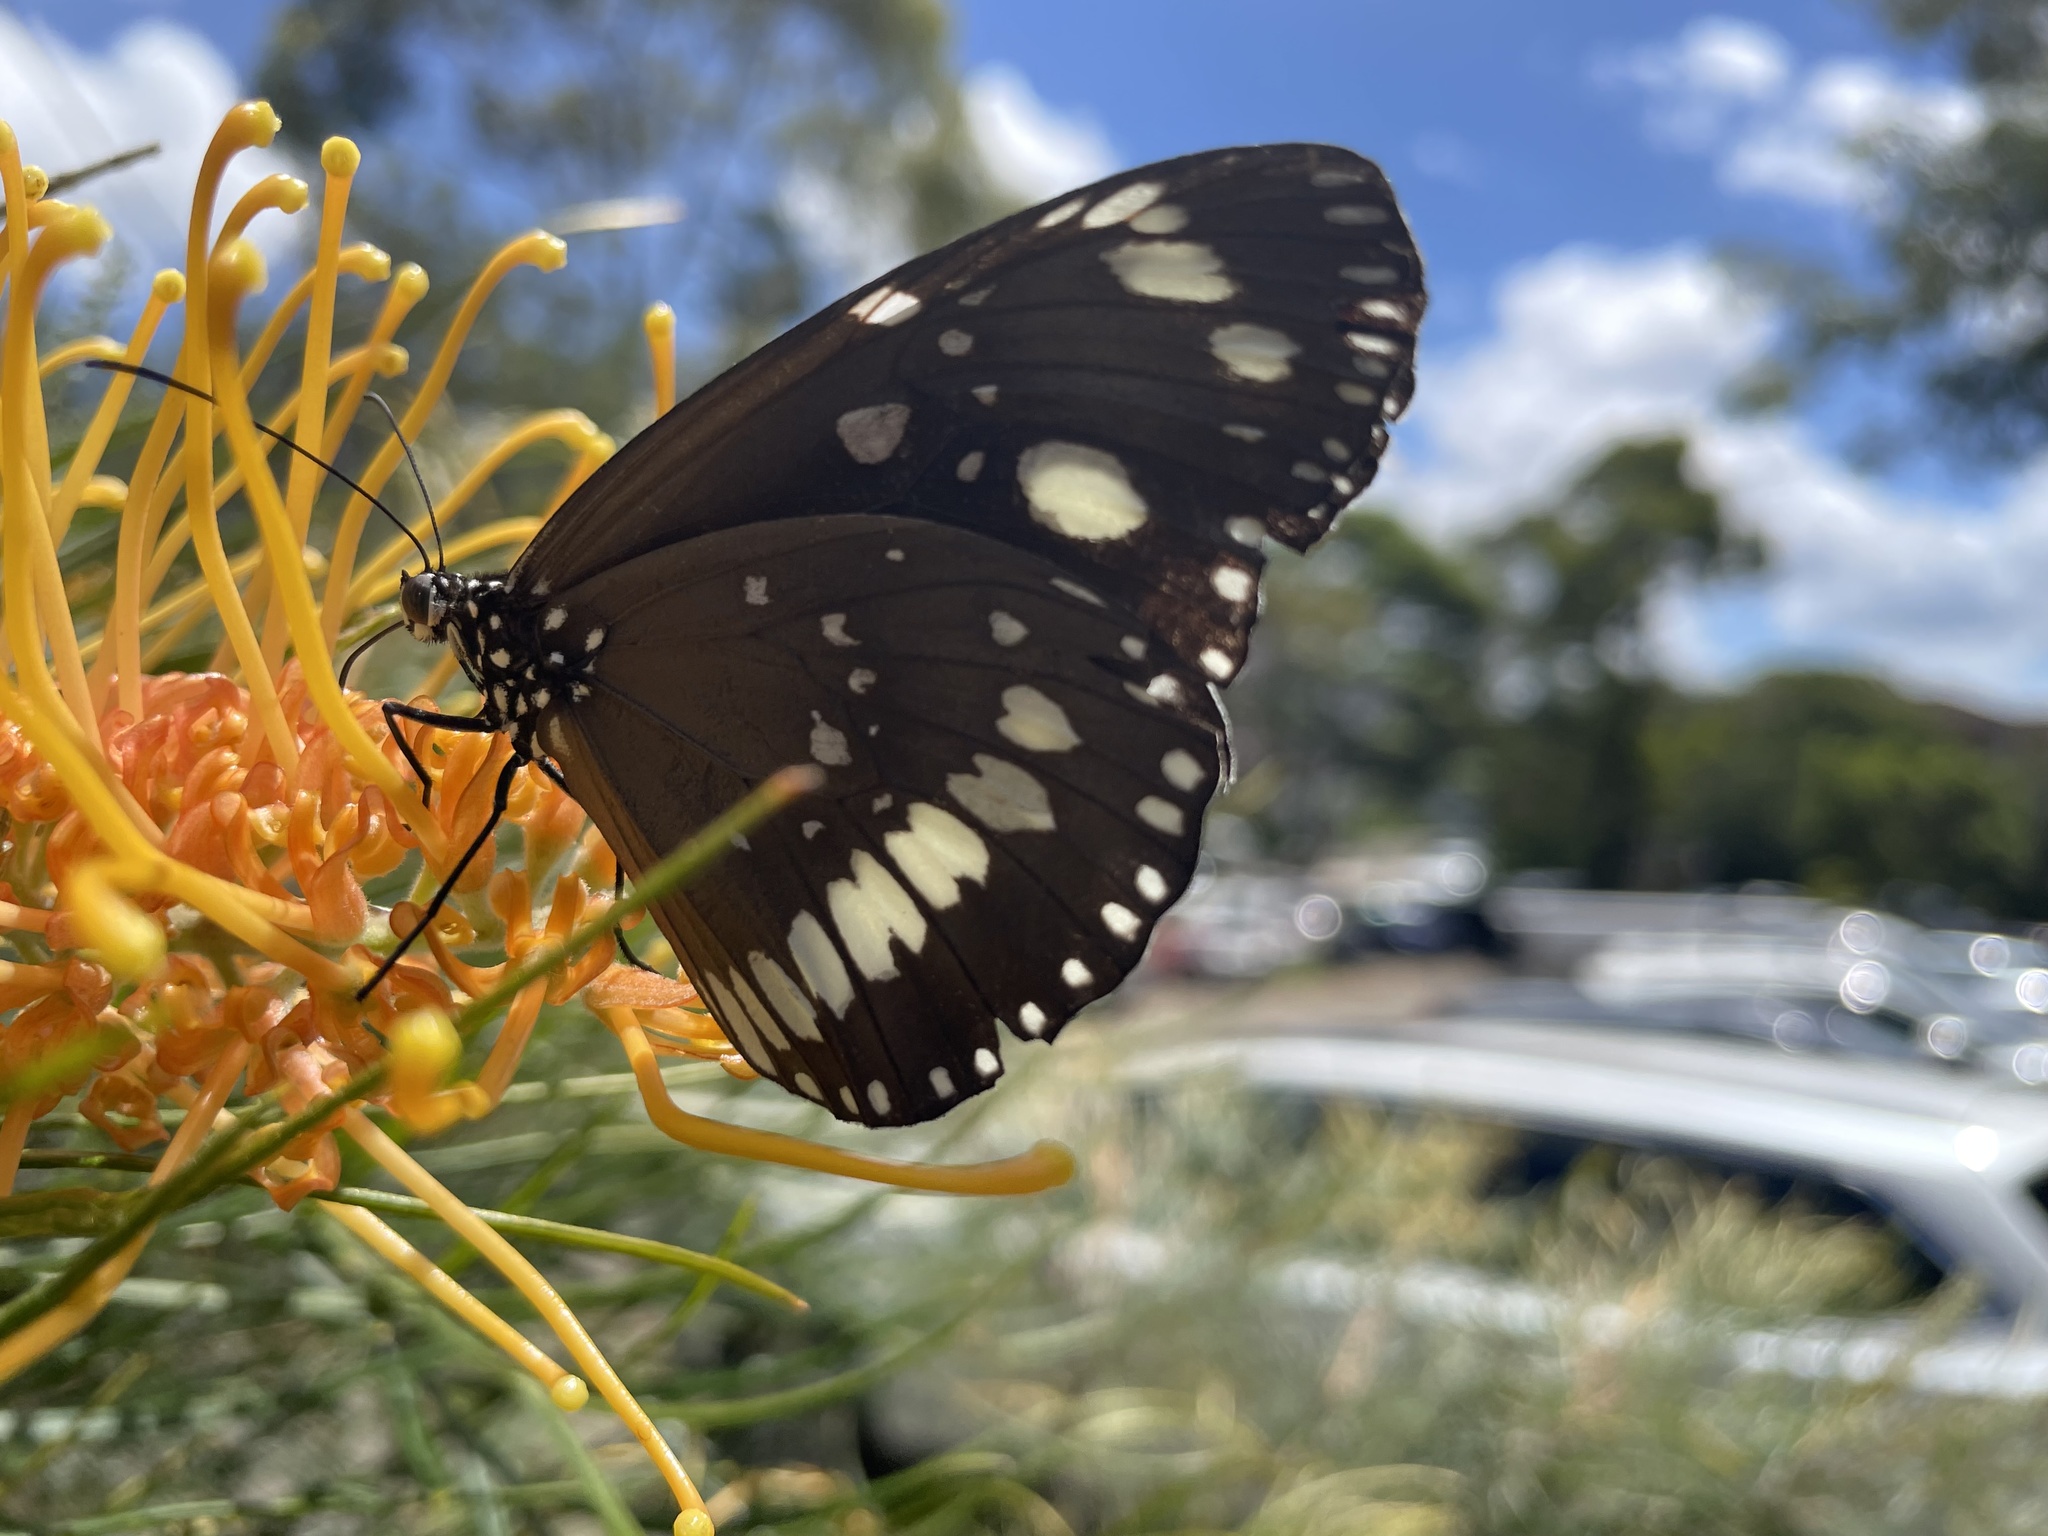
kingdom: Animalia
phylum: Arthropoda
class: Insecta
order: Lepidoptera
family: Nymphalidae
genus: Euploea
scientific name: Euploea core
